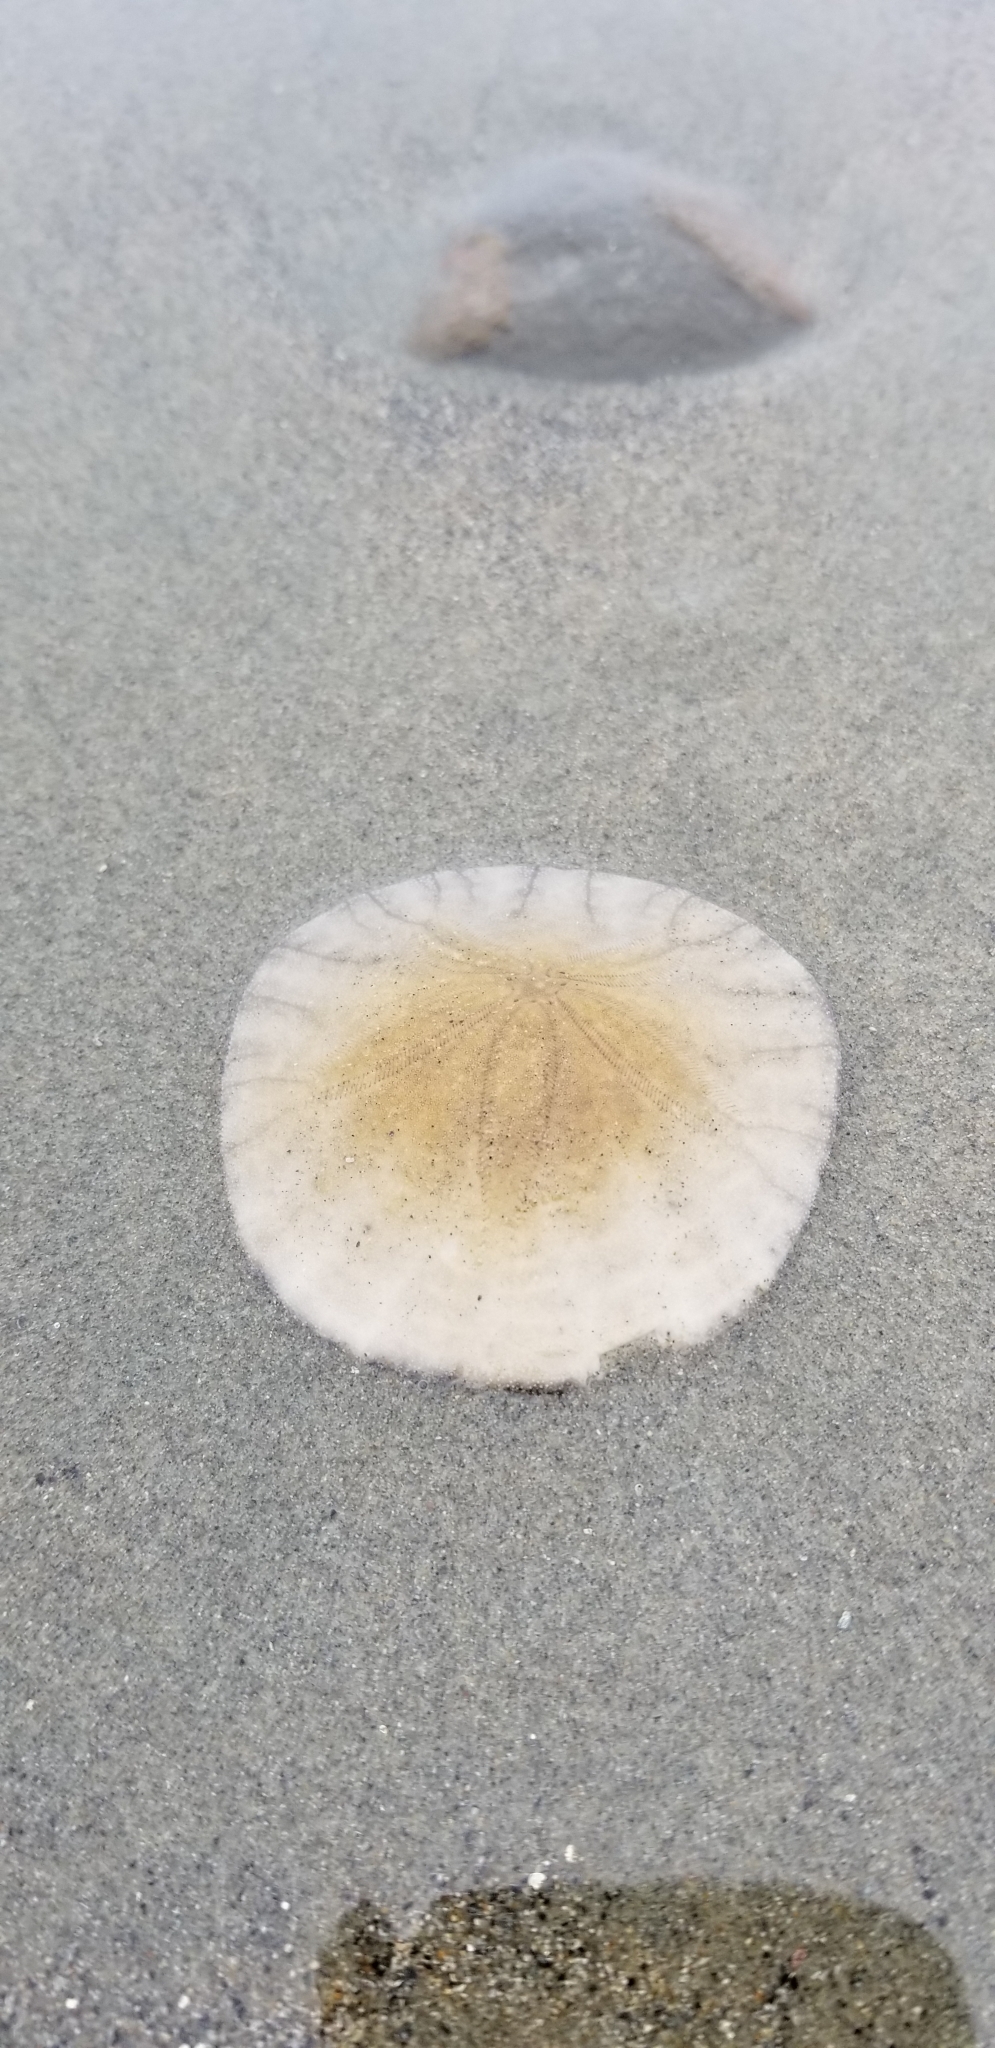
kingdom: Animalia
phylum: Echinodermata
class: Echinoidea
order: Echinolampadacea
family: Dendrasteridae
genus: Dendraster
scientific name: Dendraster excentricus
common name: Eccentric sand dollar sea urchin
